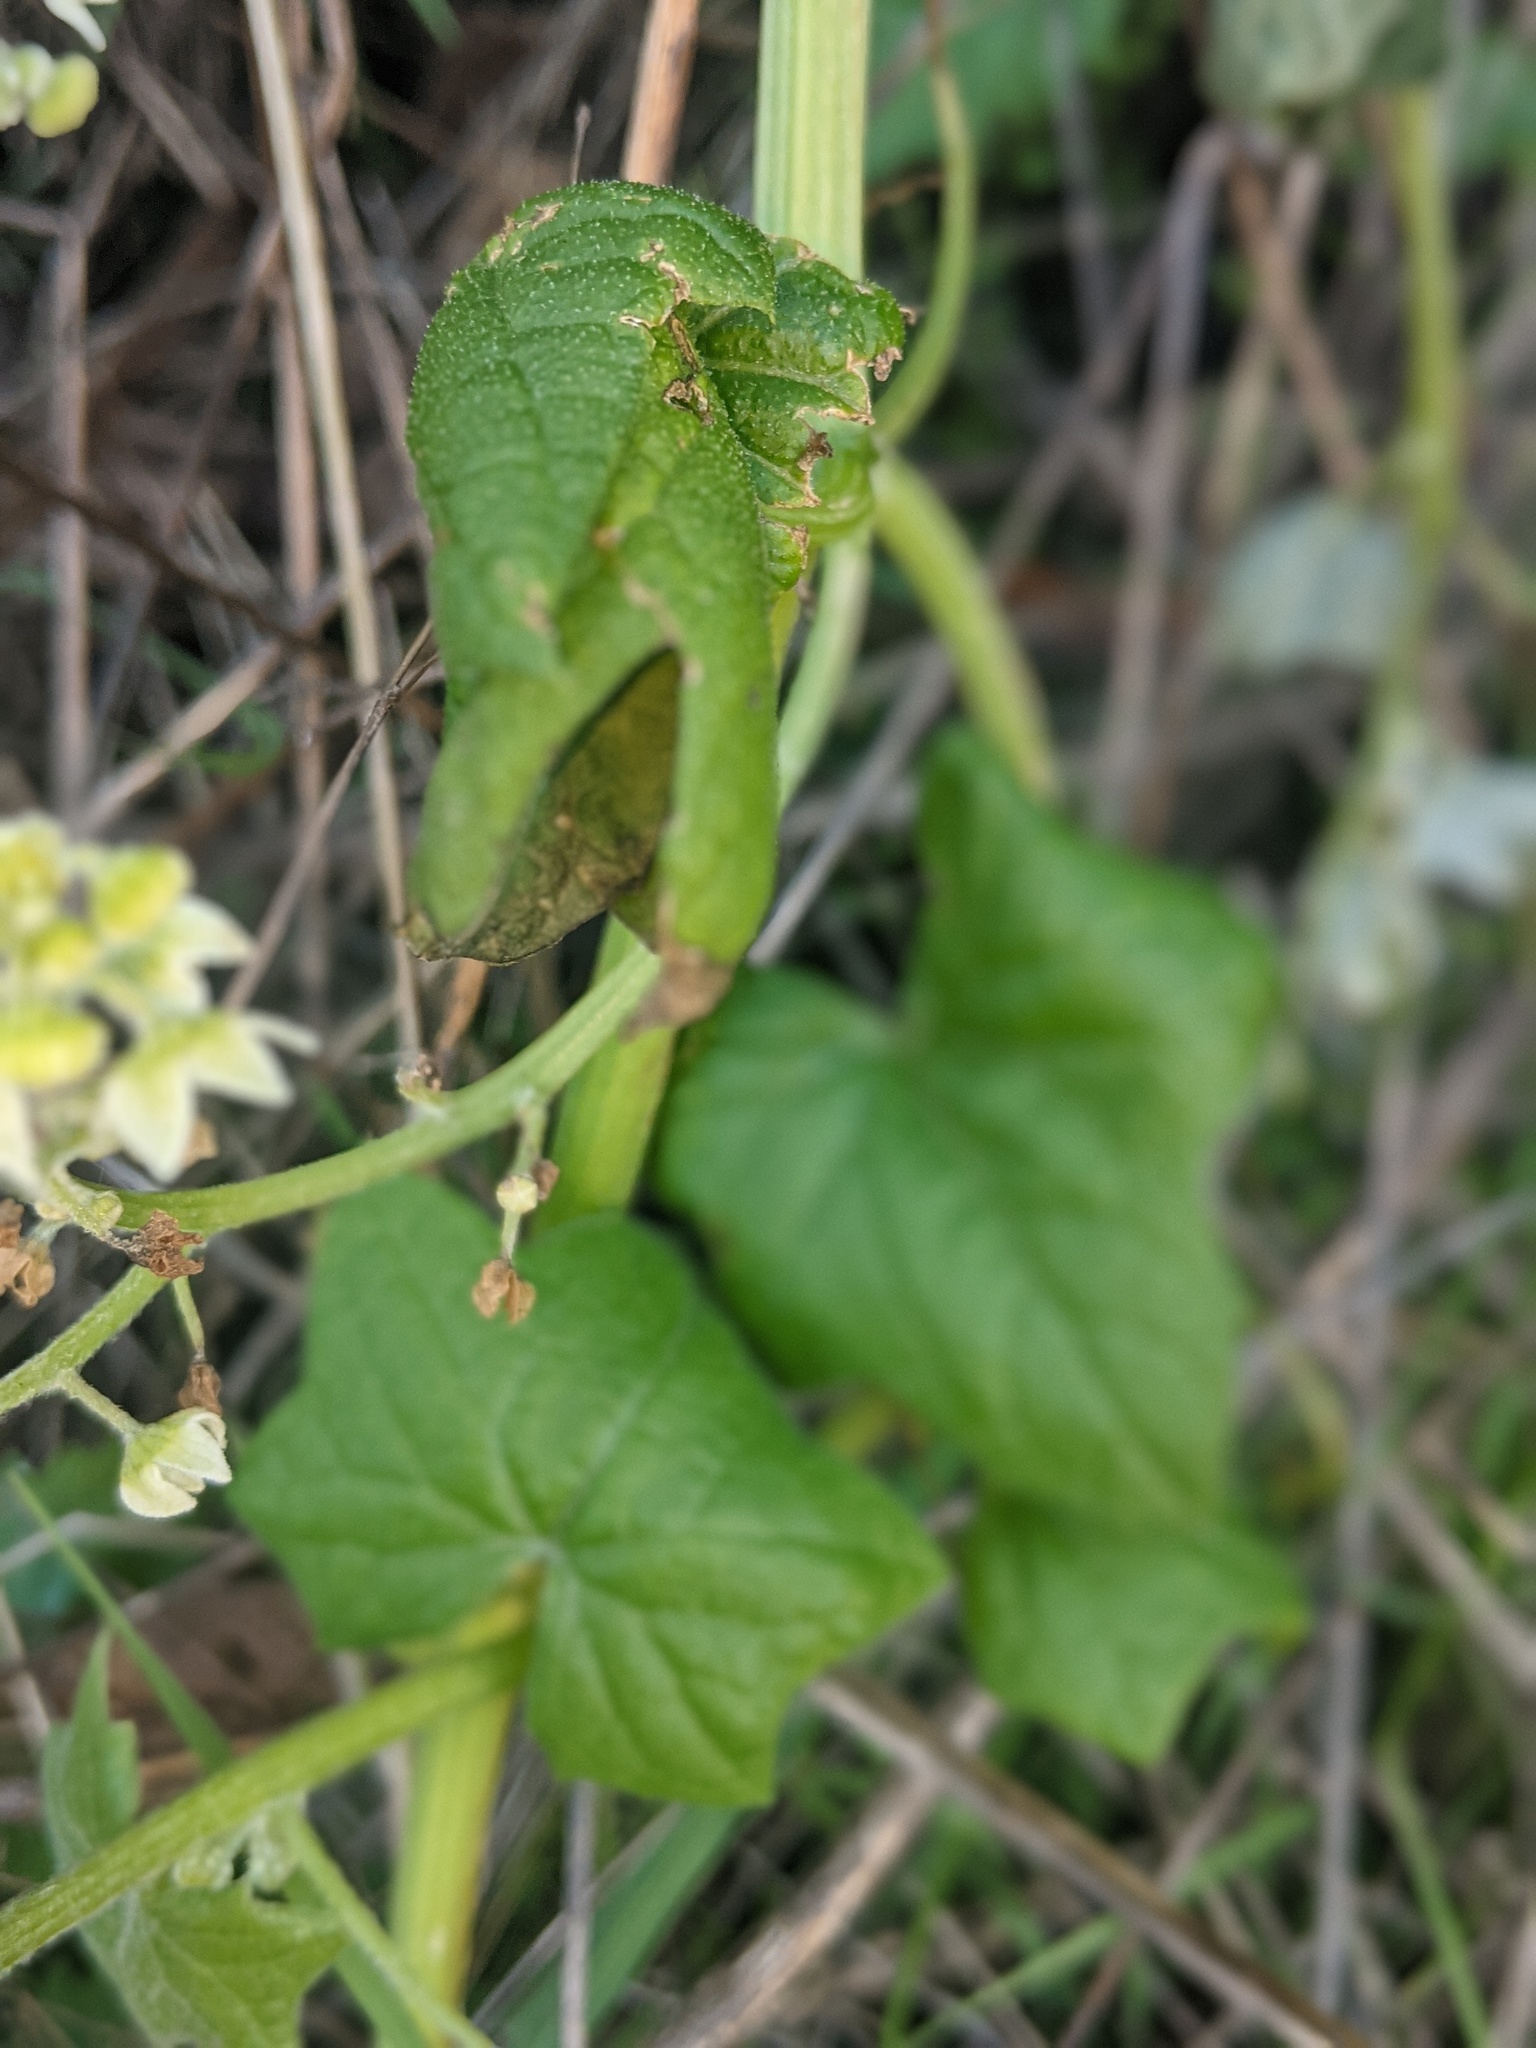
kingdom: Plantae
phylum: Tracheophyta
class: Magnoliopsida
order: Cucurbitales
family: Cucurbitaceae
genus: Marah
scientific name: Marah fabacea
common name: California manroot
